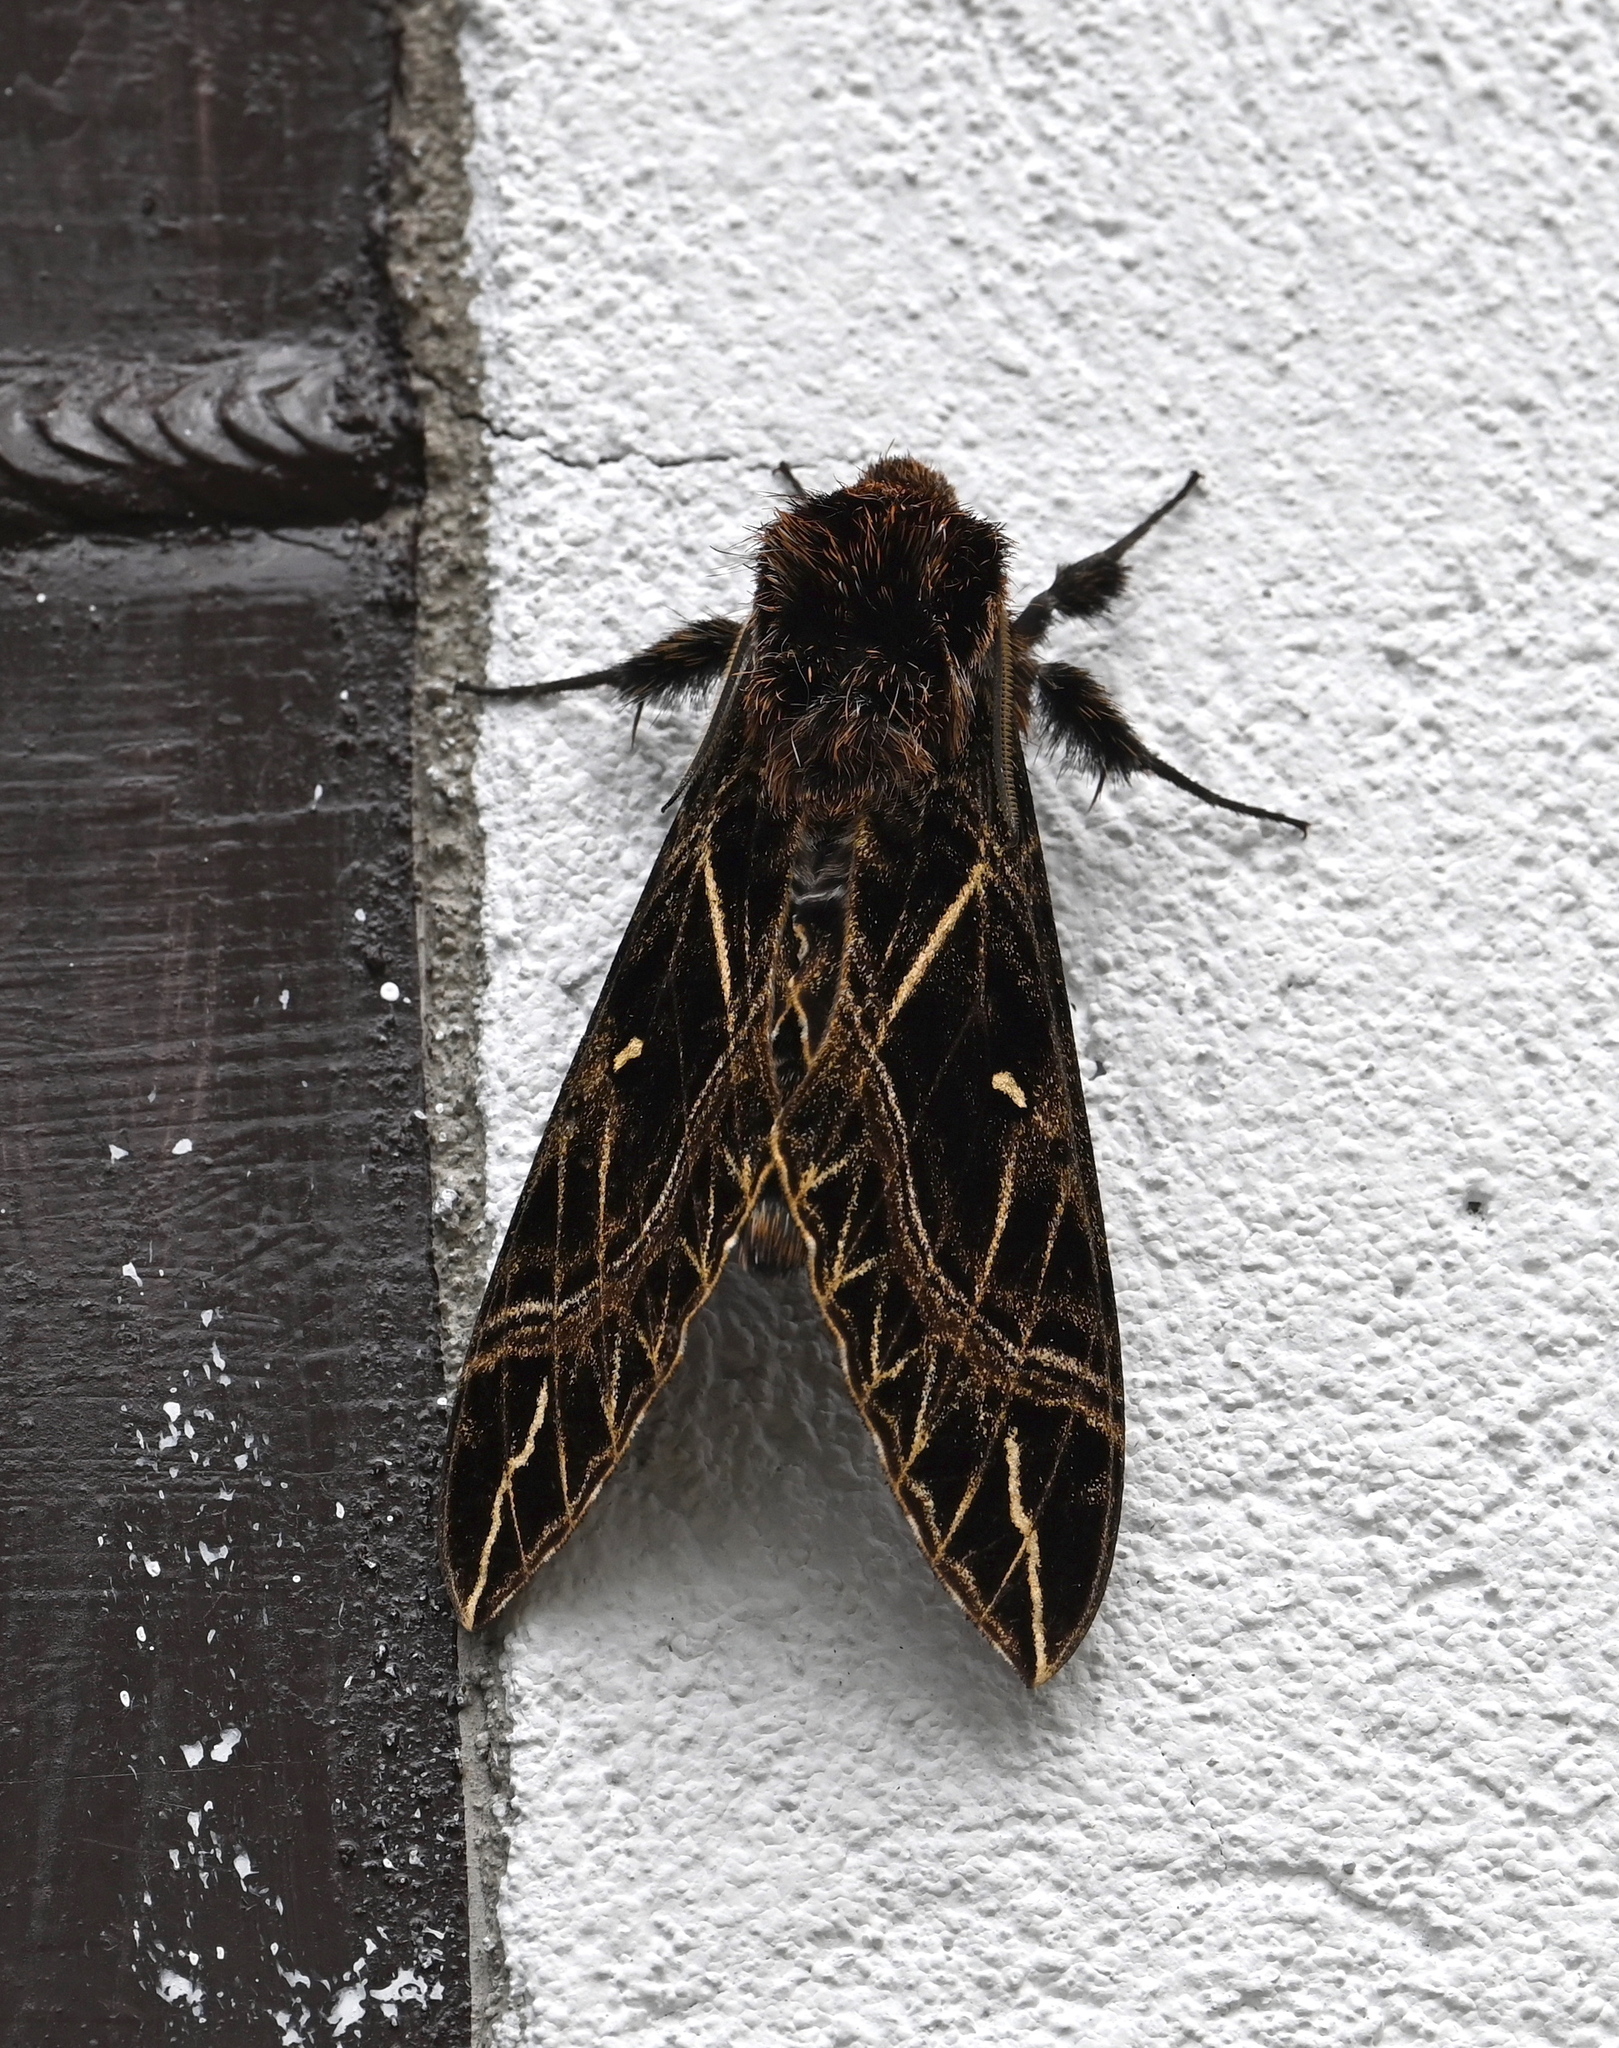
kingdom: Animalia
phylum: Arthropoda
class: Insecta
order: Lepidoptera
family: Sphingidae
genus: Euryglottis
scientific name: Euryglottis aper
